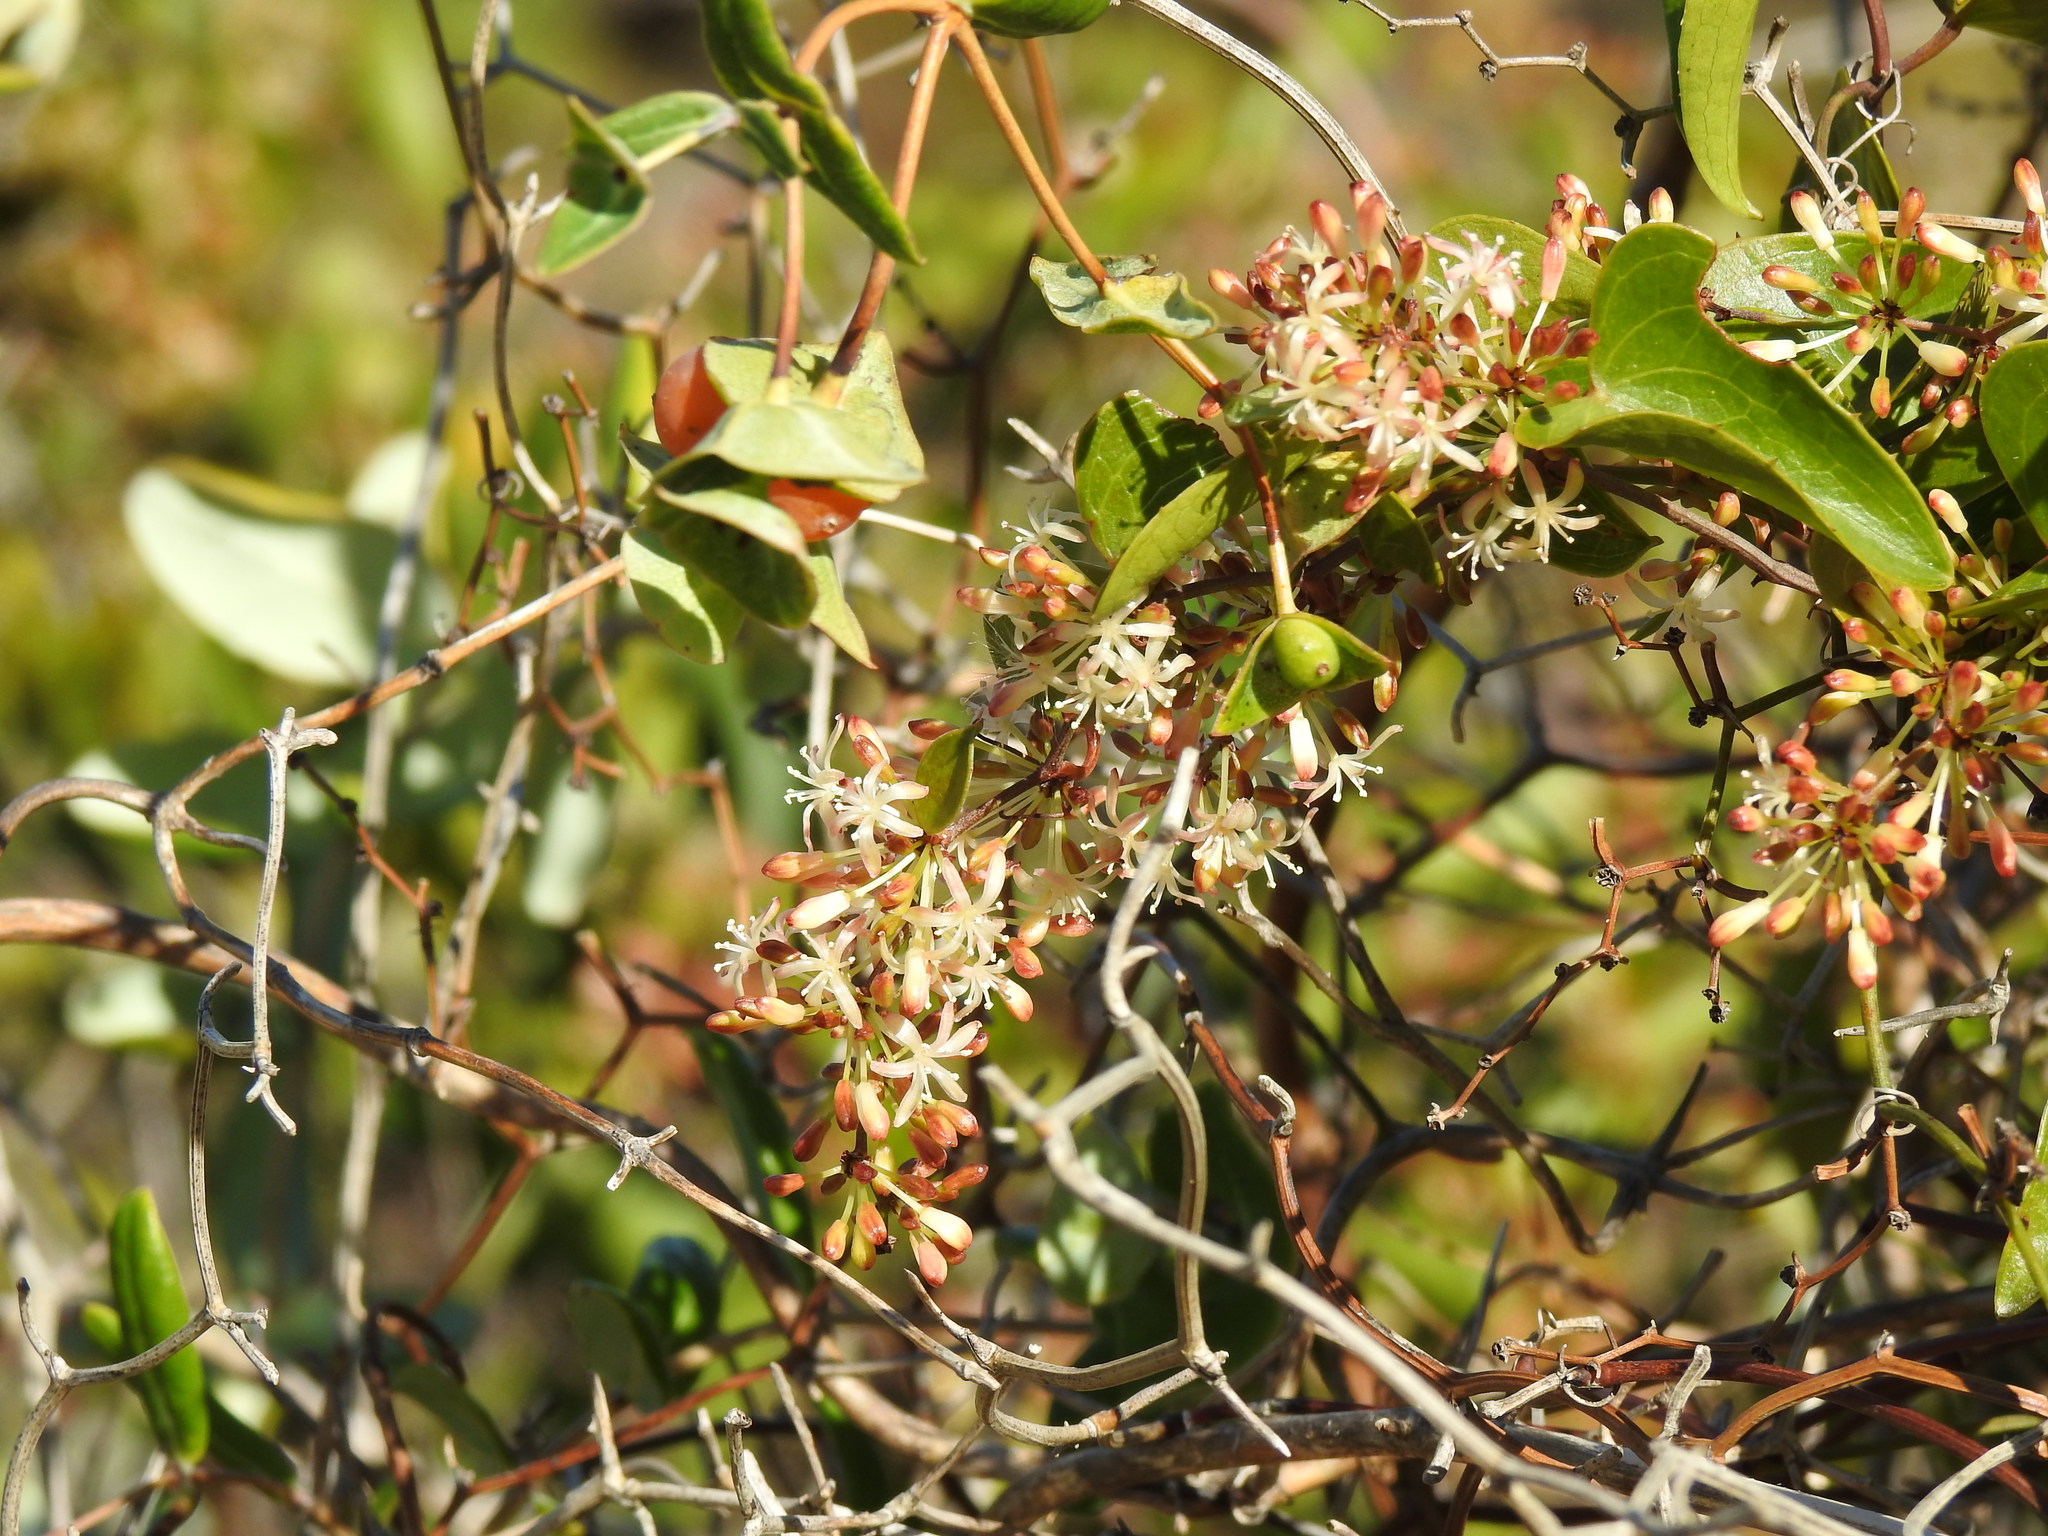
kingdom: Plantae
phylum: Tracheophyta
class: Liliopsida
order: Liliales
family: Smilacaceae
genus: Smilax
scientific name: Smilax aspera
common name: Common smilax
